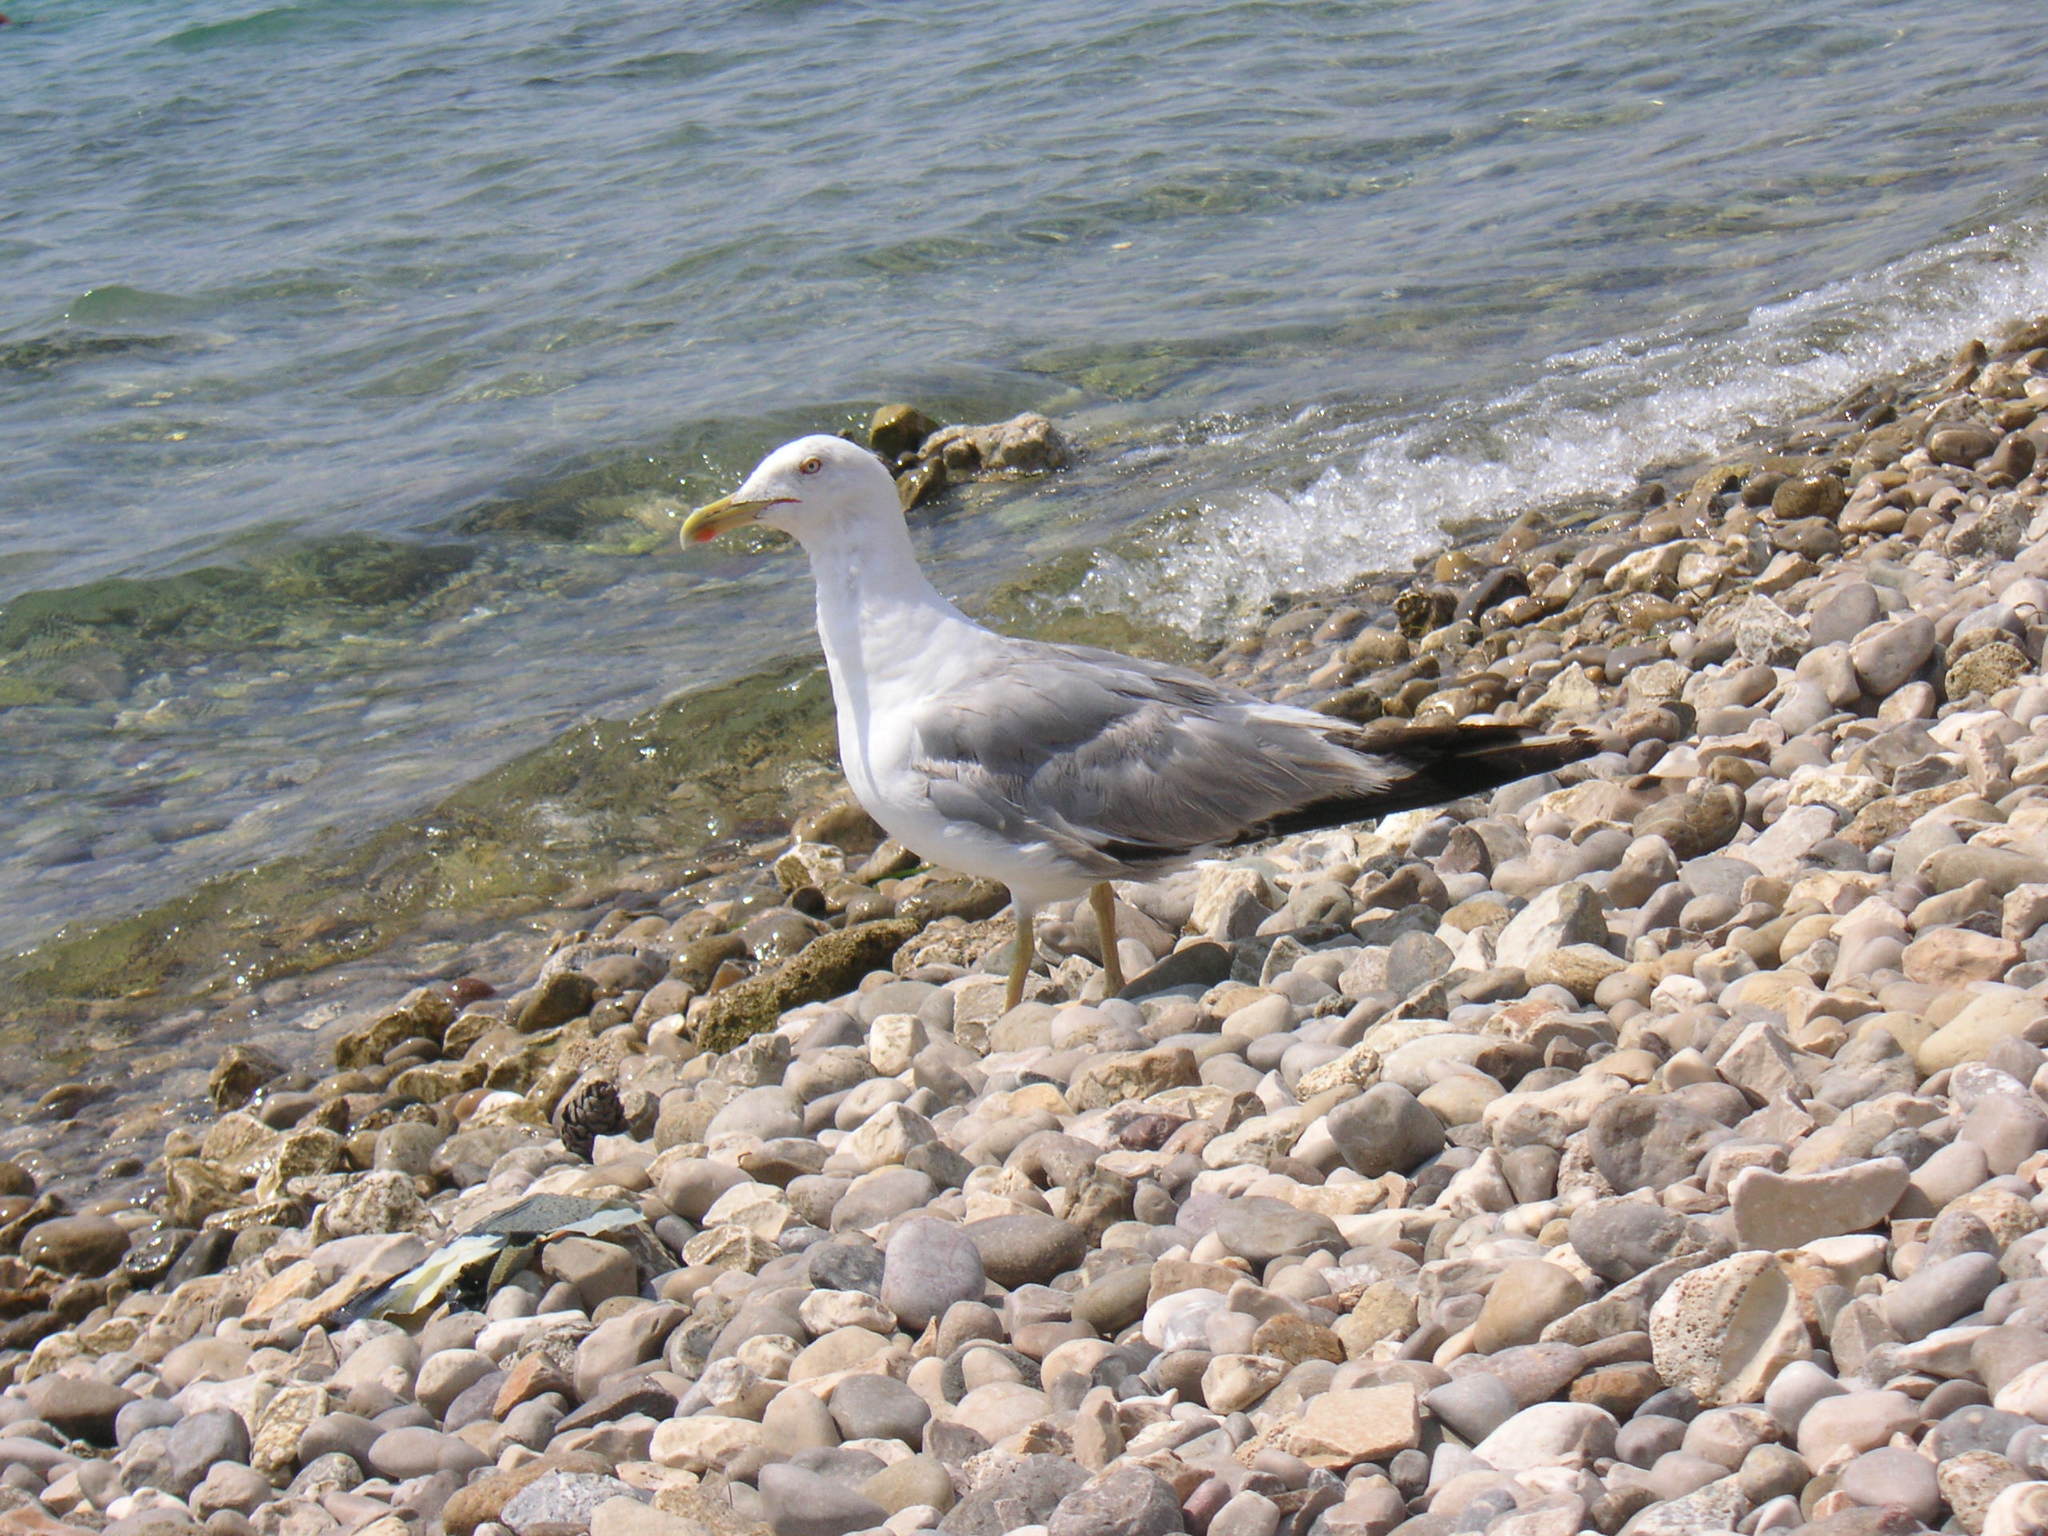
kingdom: Animalia
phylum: Chordata
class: Aves
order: Charadriiformes
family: Laridae
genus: Larus
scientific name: Larus michahellis
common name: Yellow-legged gull
